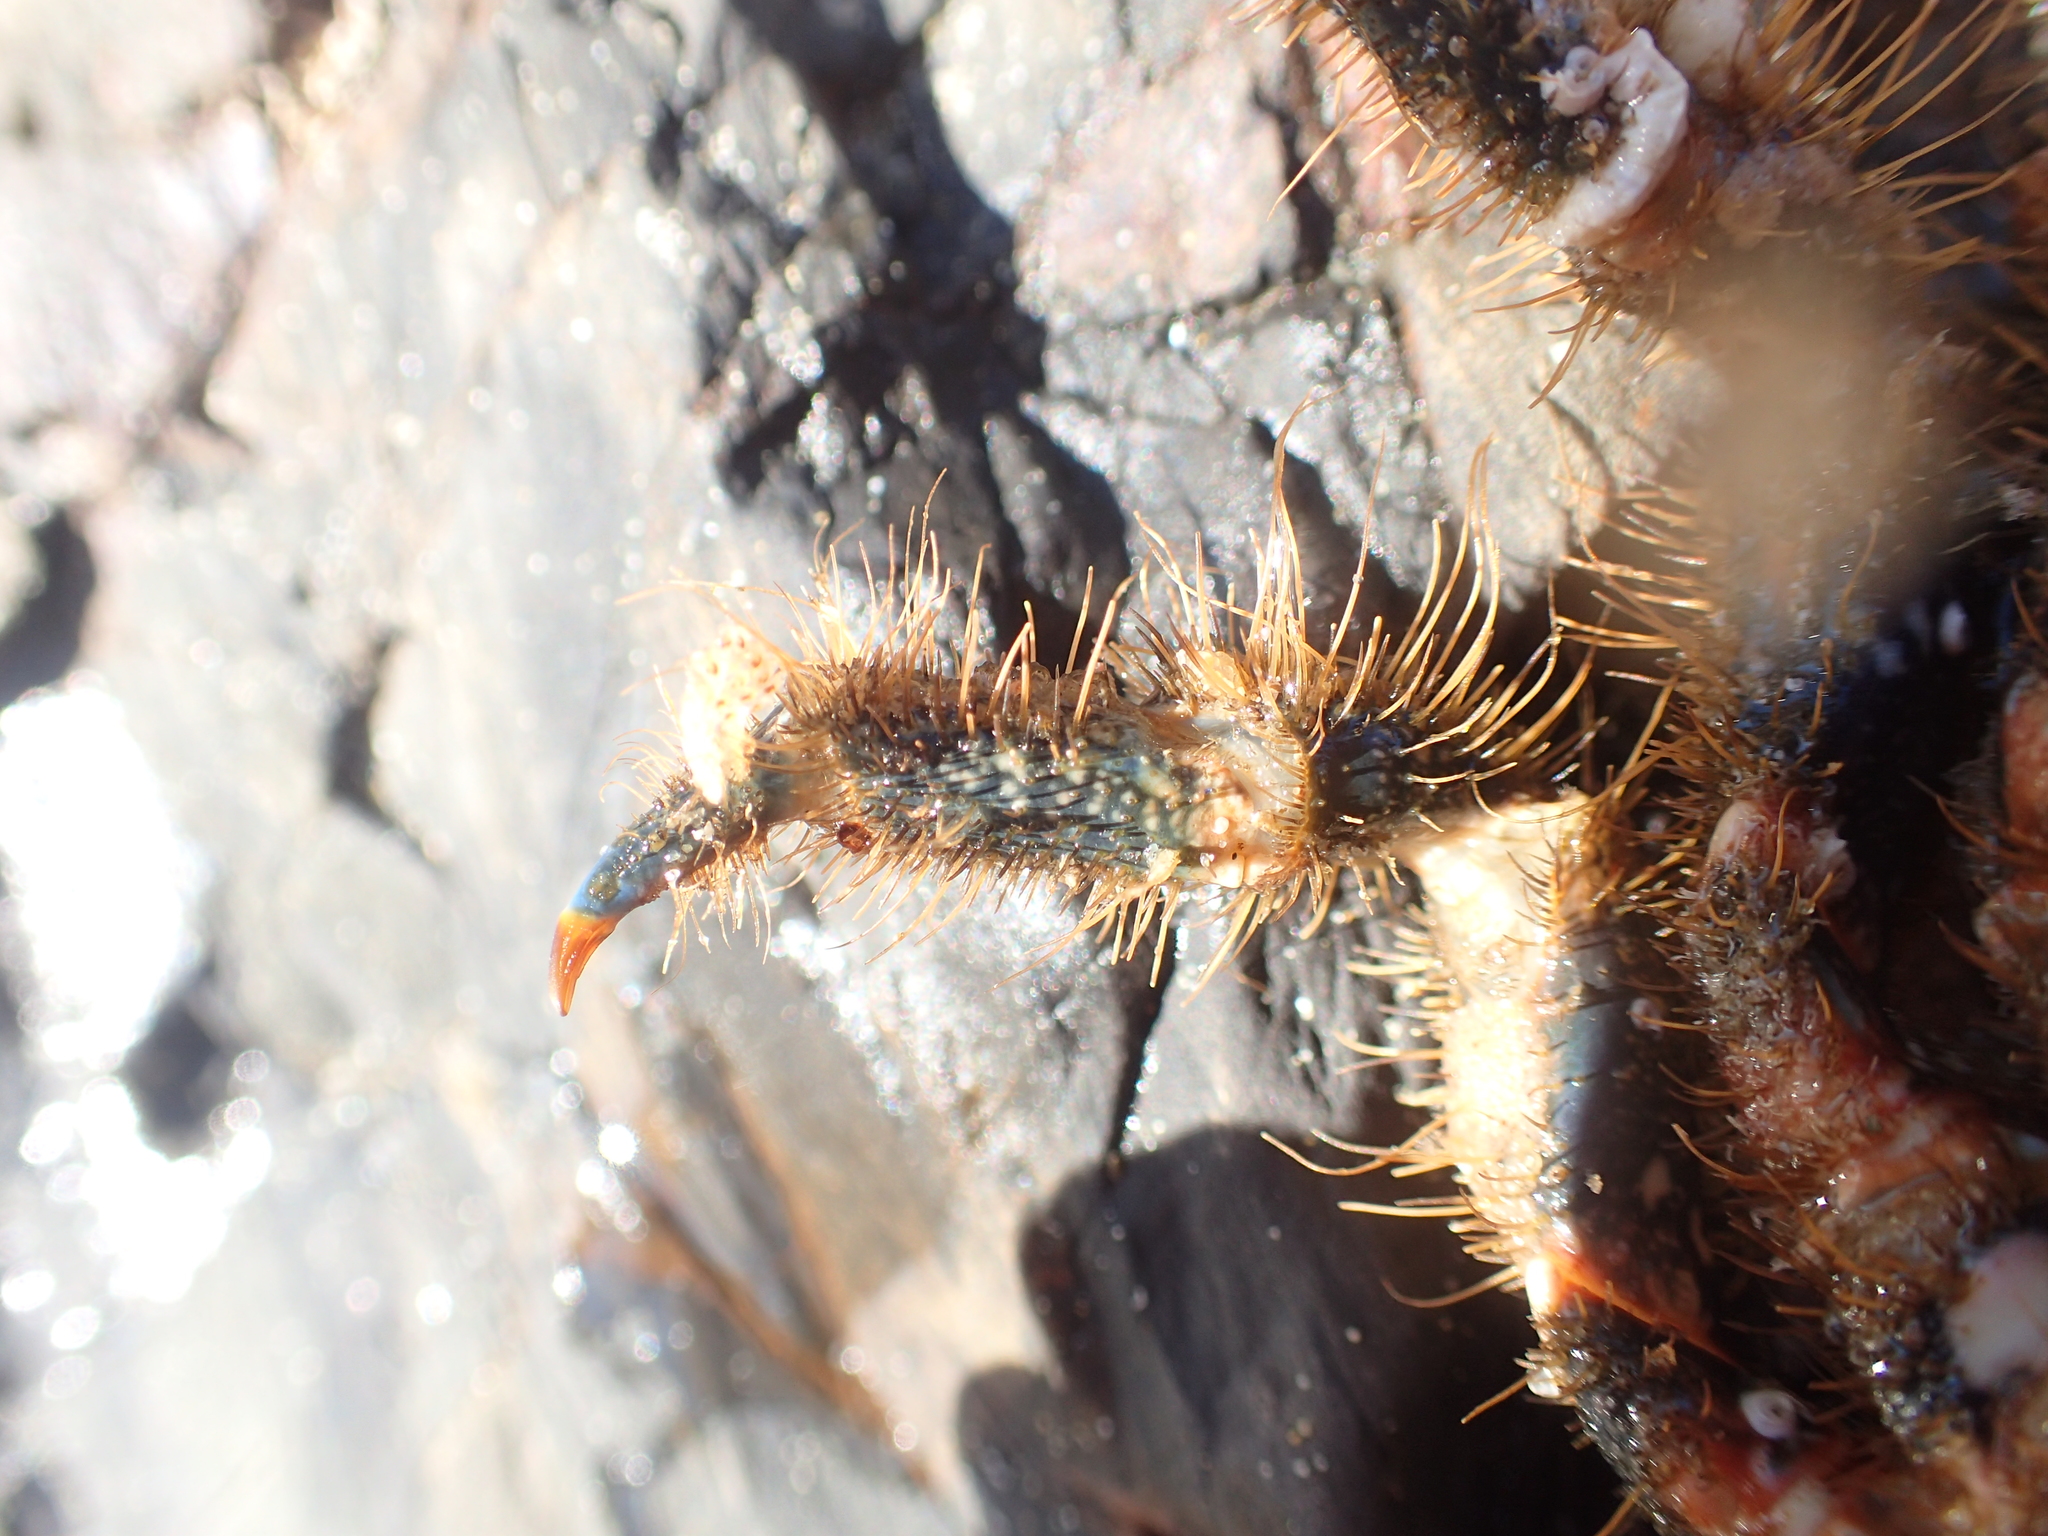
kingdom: Animalia
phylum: Arthropoda
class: Malacostraca
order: Decapoda
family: Majidae
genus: Notomithrax
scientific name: Notomithrax ursus
